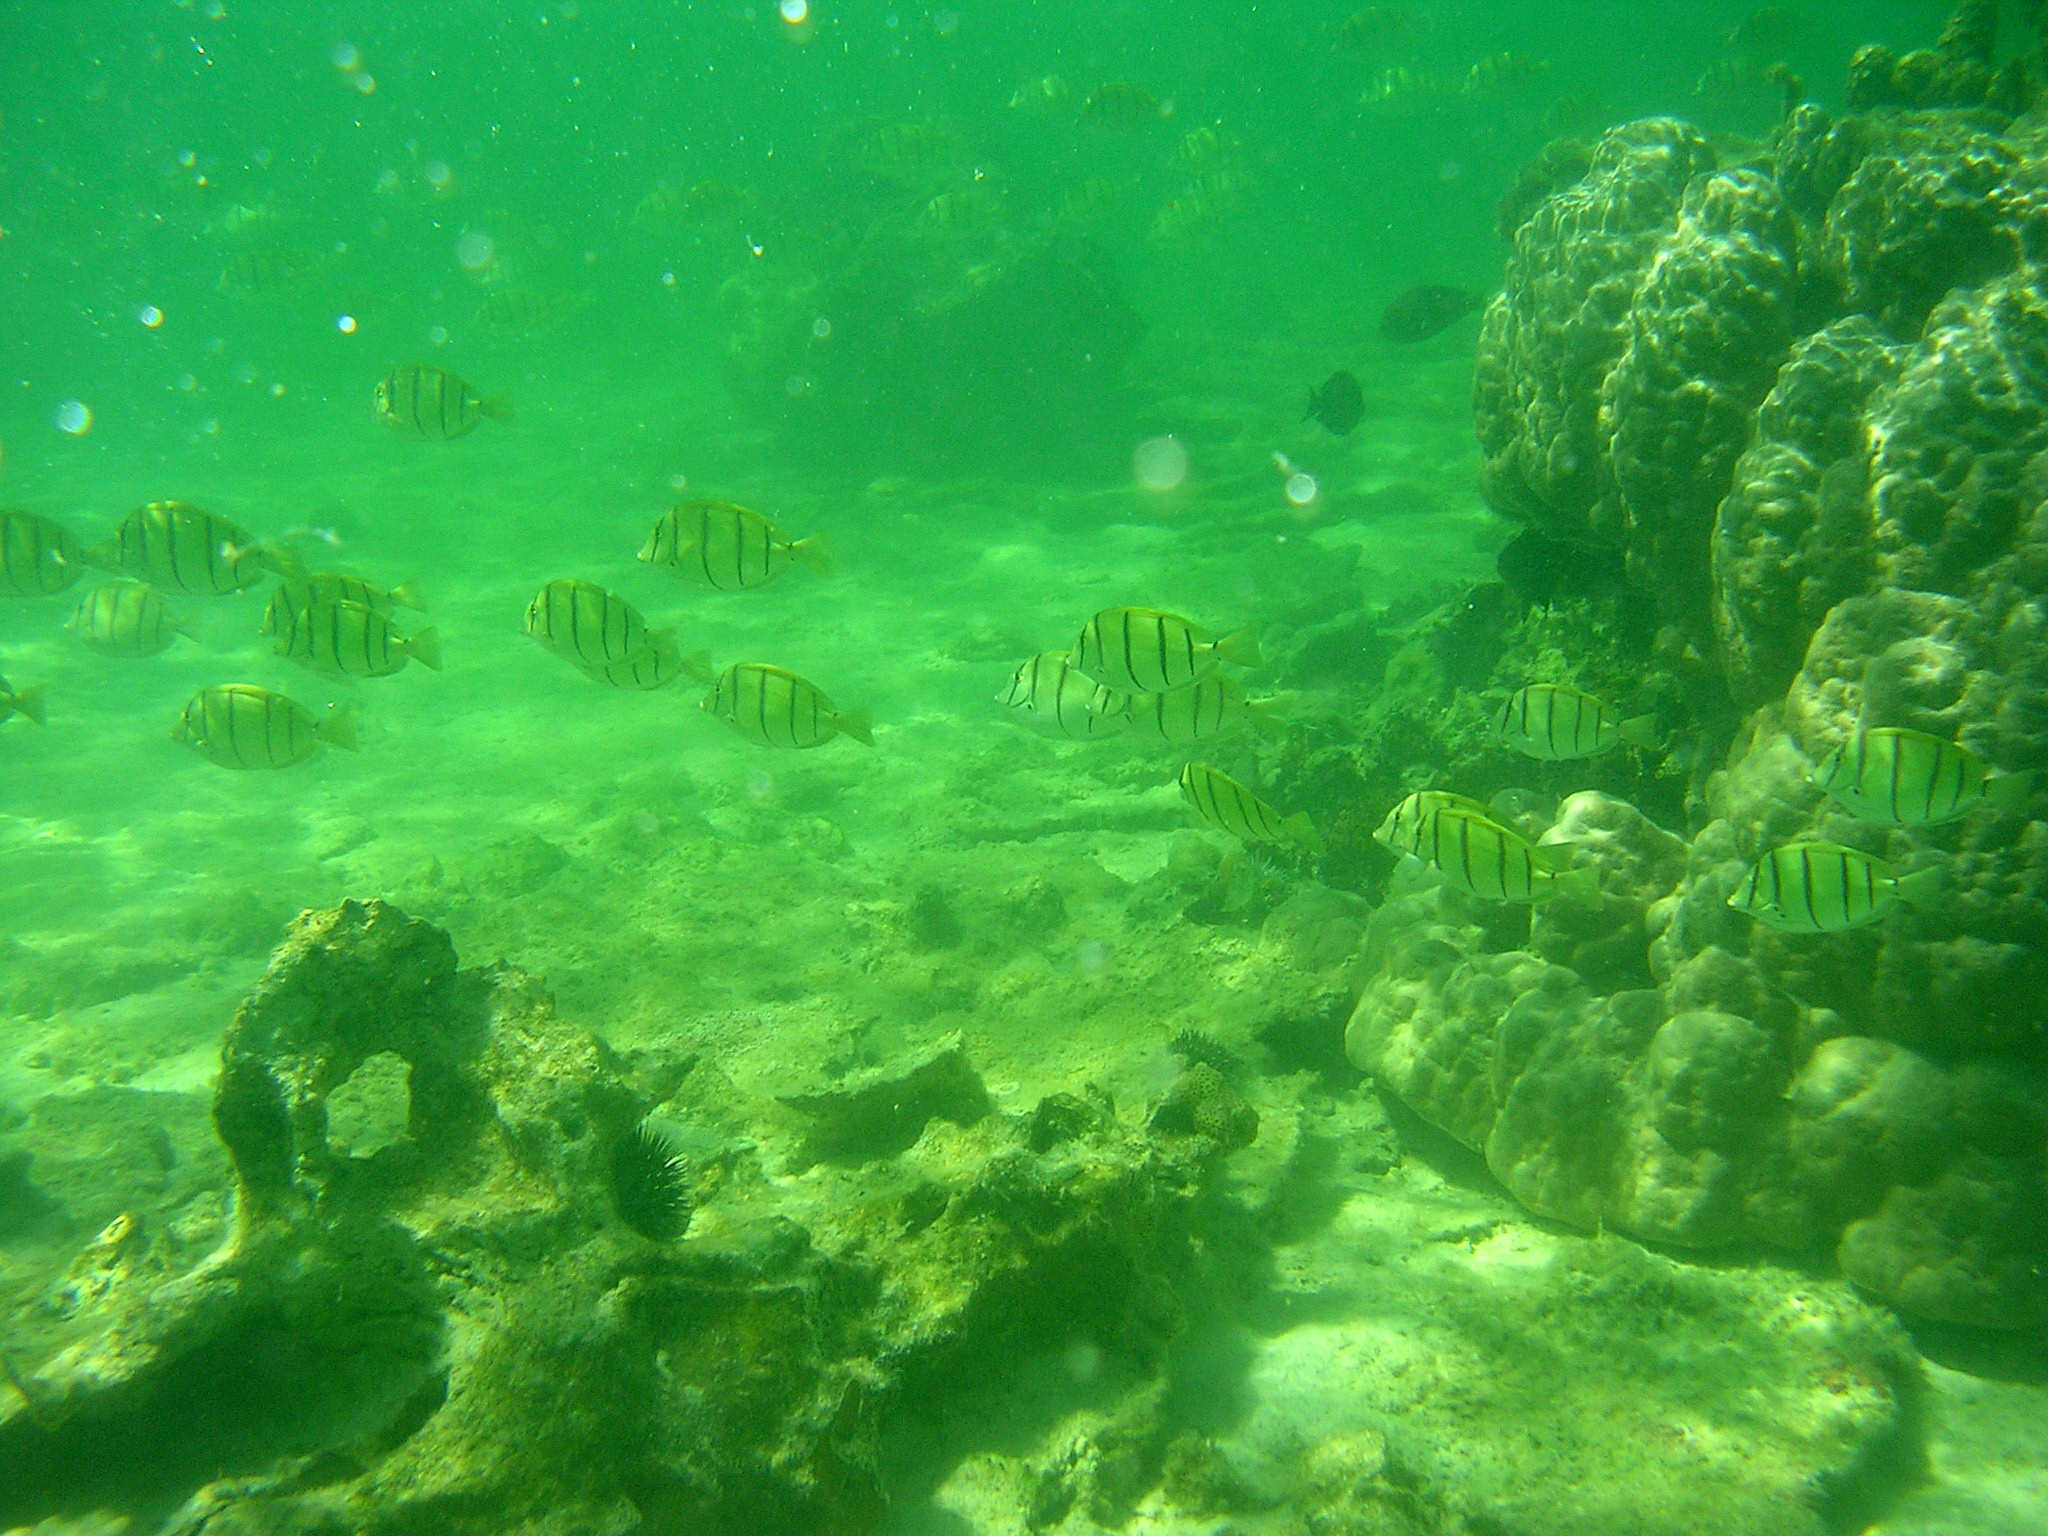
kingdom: Animalia
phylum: Chordata
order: Perciformes
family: Acanthuridae
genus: Acanthurus
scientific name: Acanthurus triostegus
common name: Convict surgeonfish
